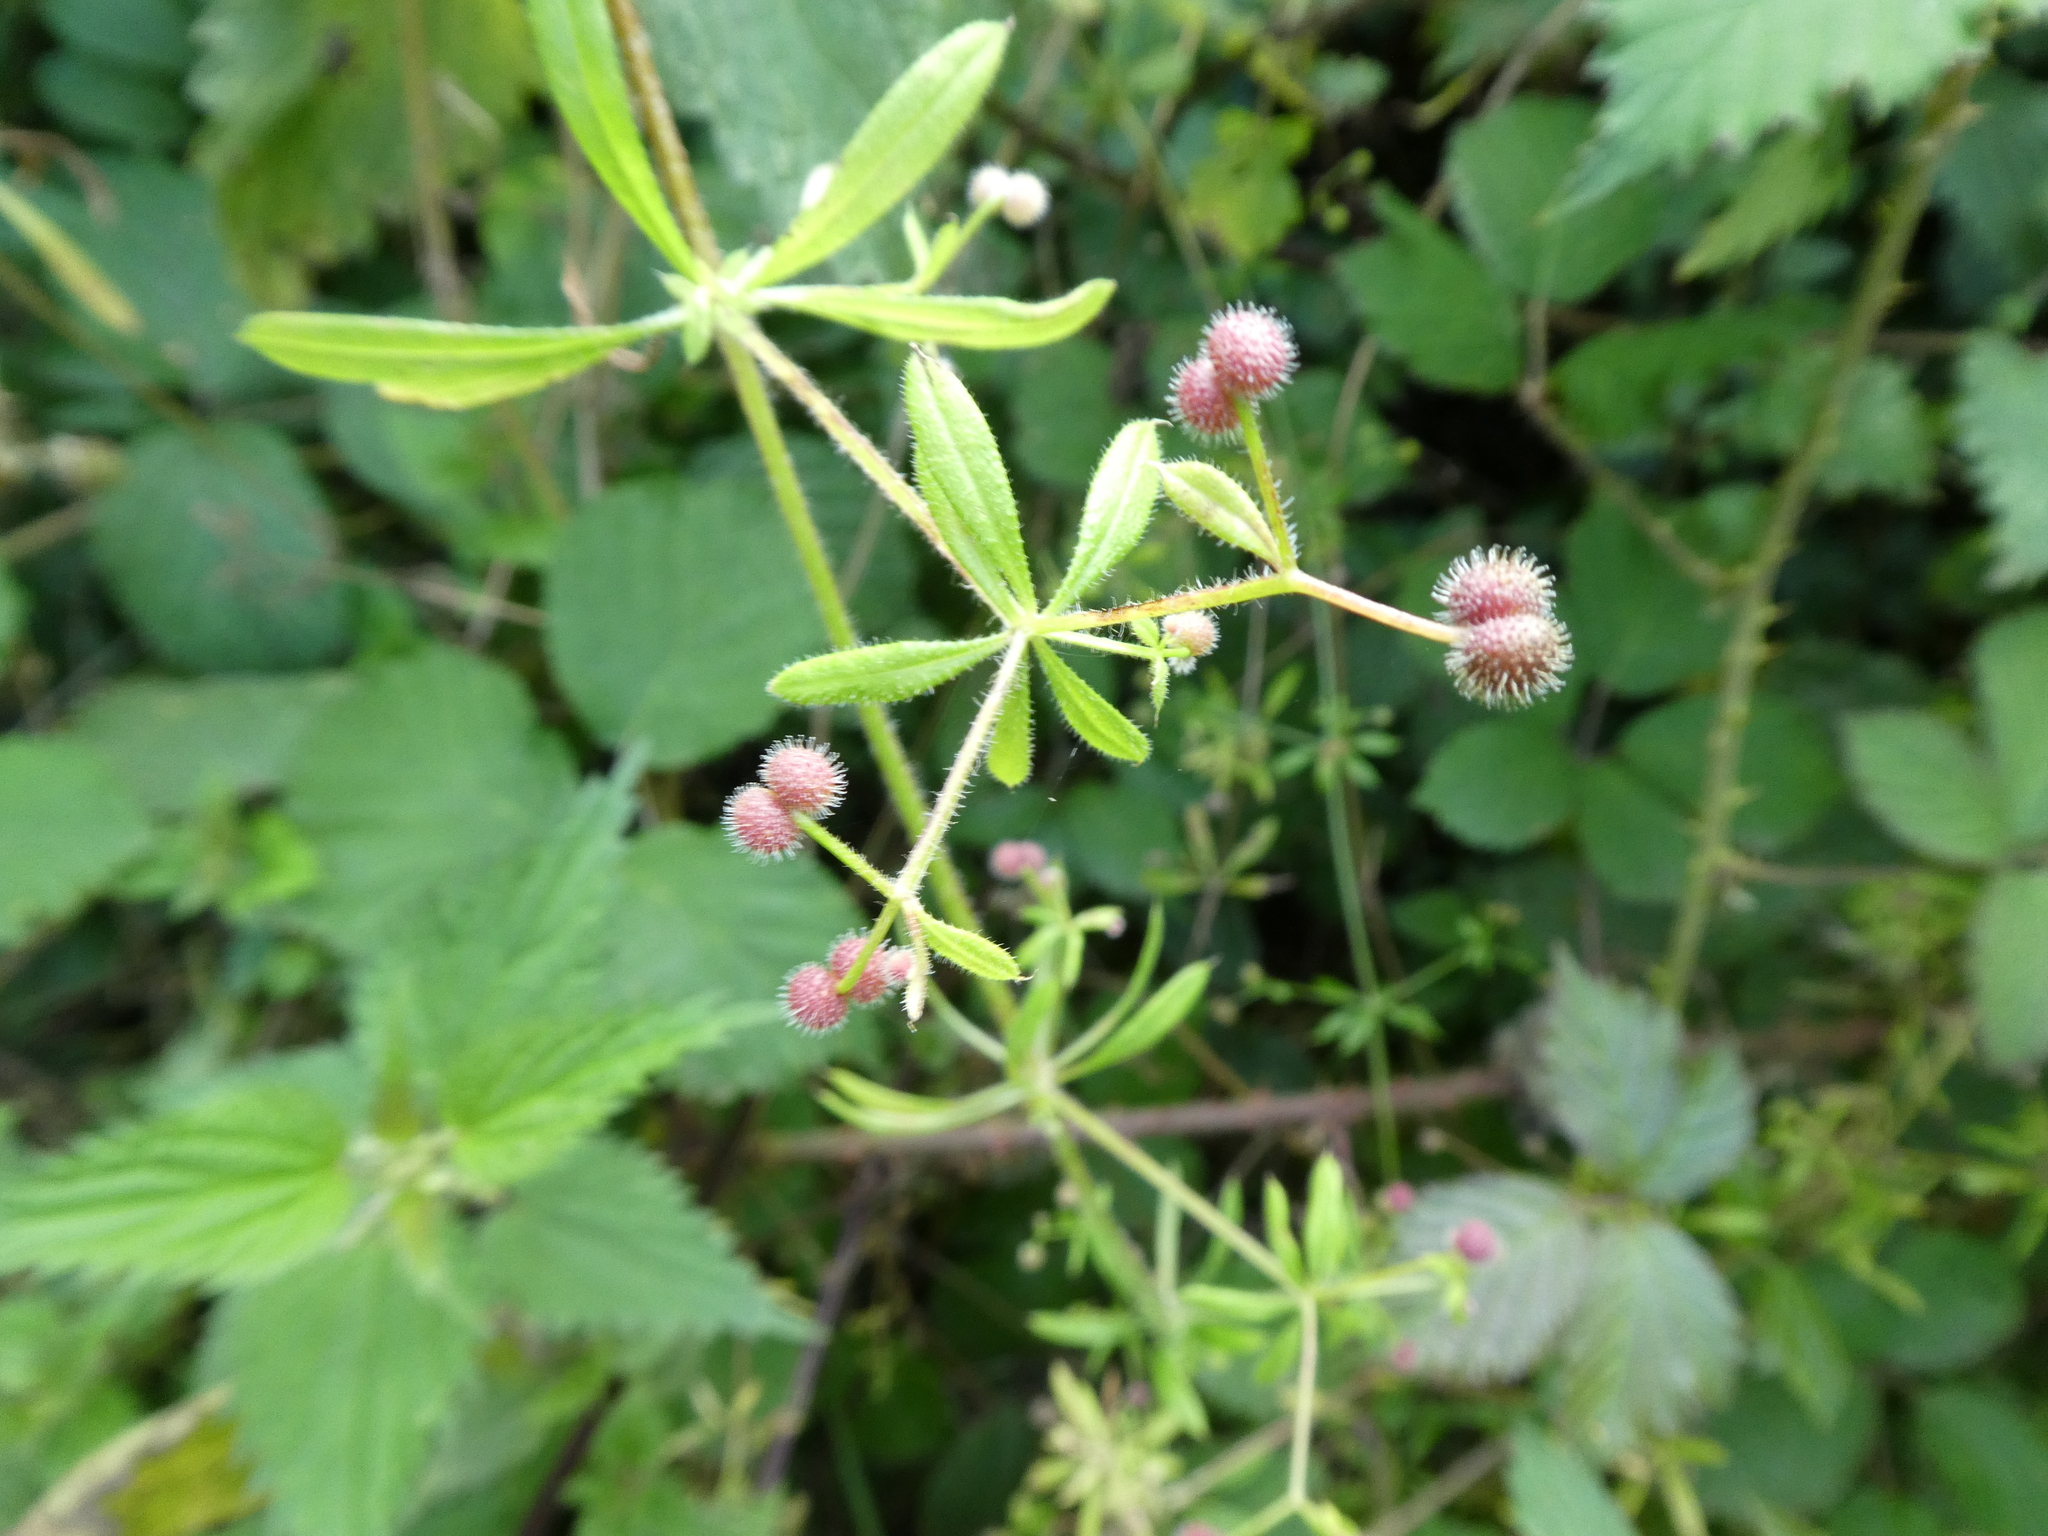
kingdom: Plantae
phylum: Tracheophyta
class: Magnoliopsida
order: Gentianales
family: Rubiaceae
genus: Galium
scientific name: Galium aparine
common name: Cleavers
